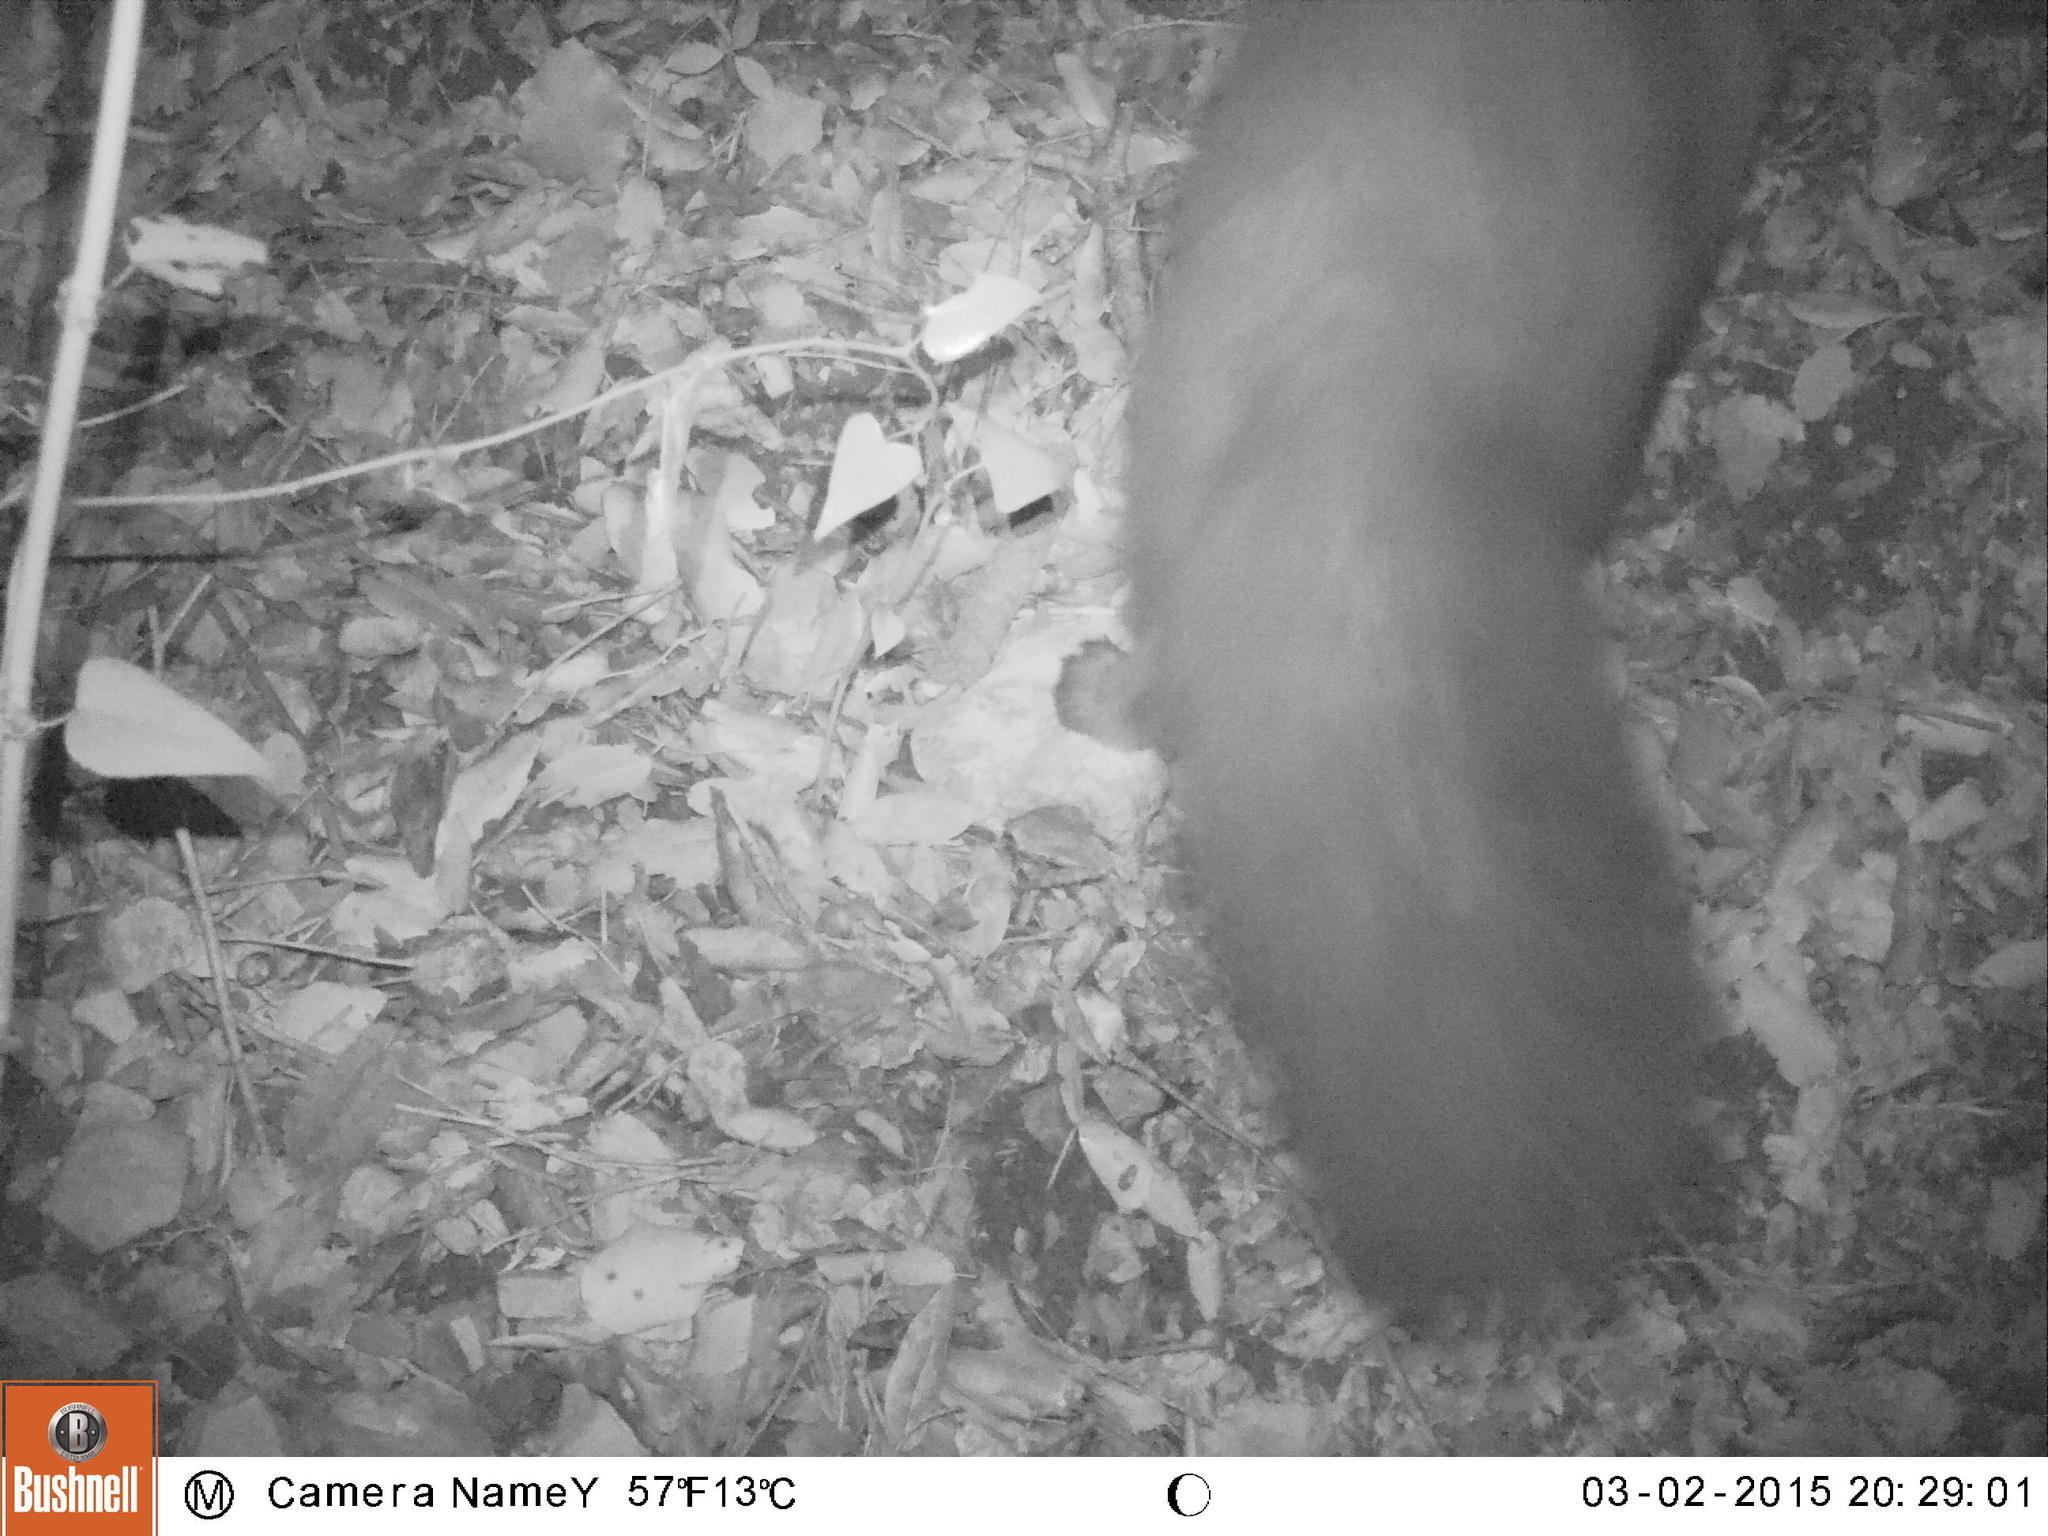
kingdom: Animalia
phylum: Chordata
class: Mammalia
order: Carnivora
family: Mustelidae
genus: Martes
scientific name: Martes foina
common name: Beech marten
